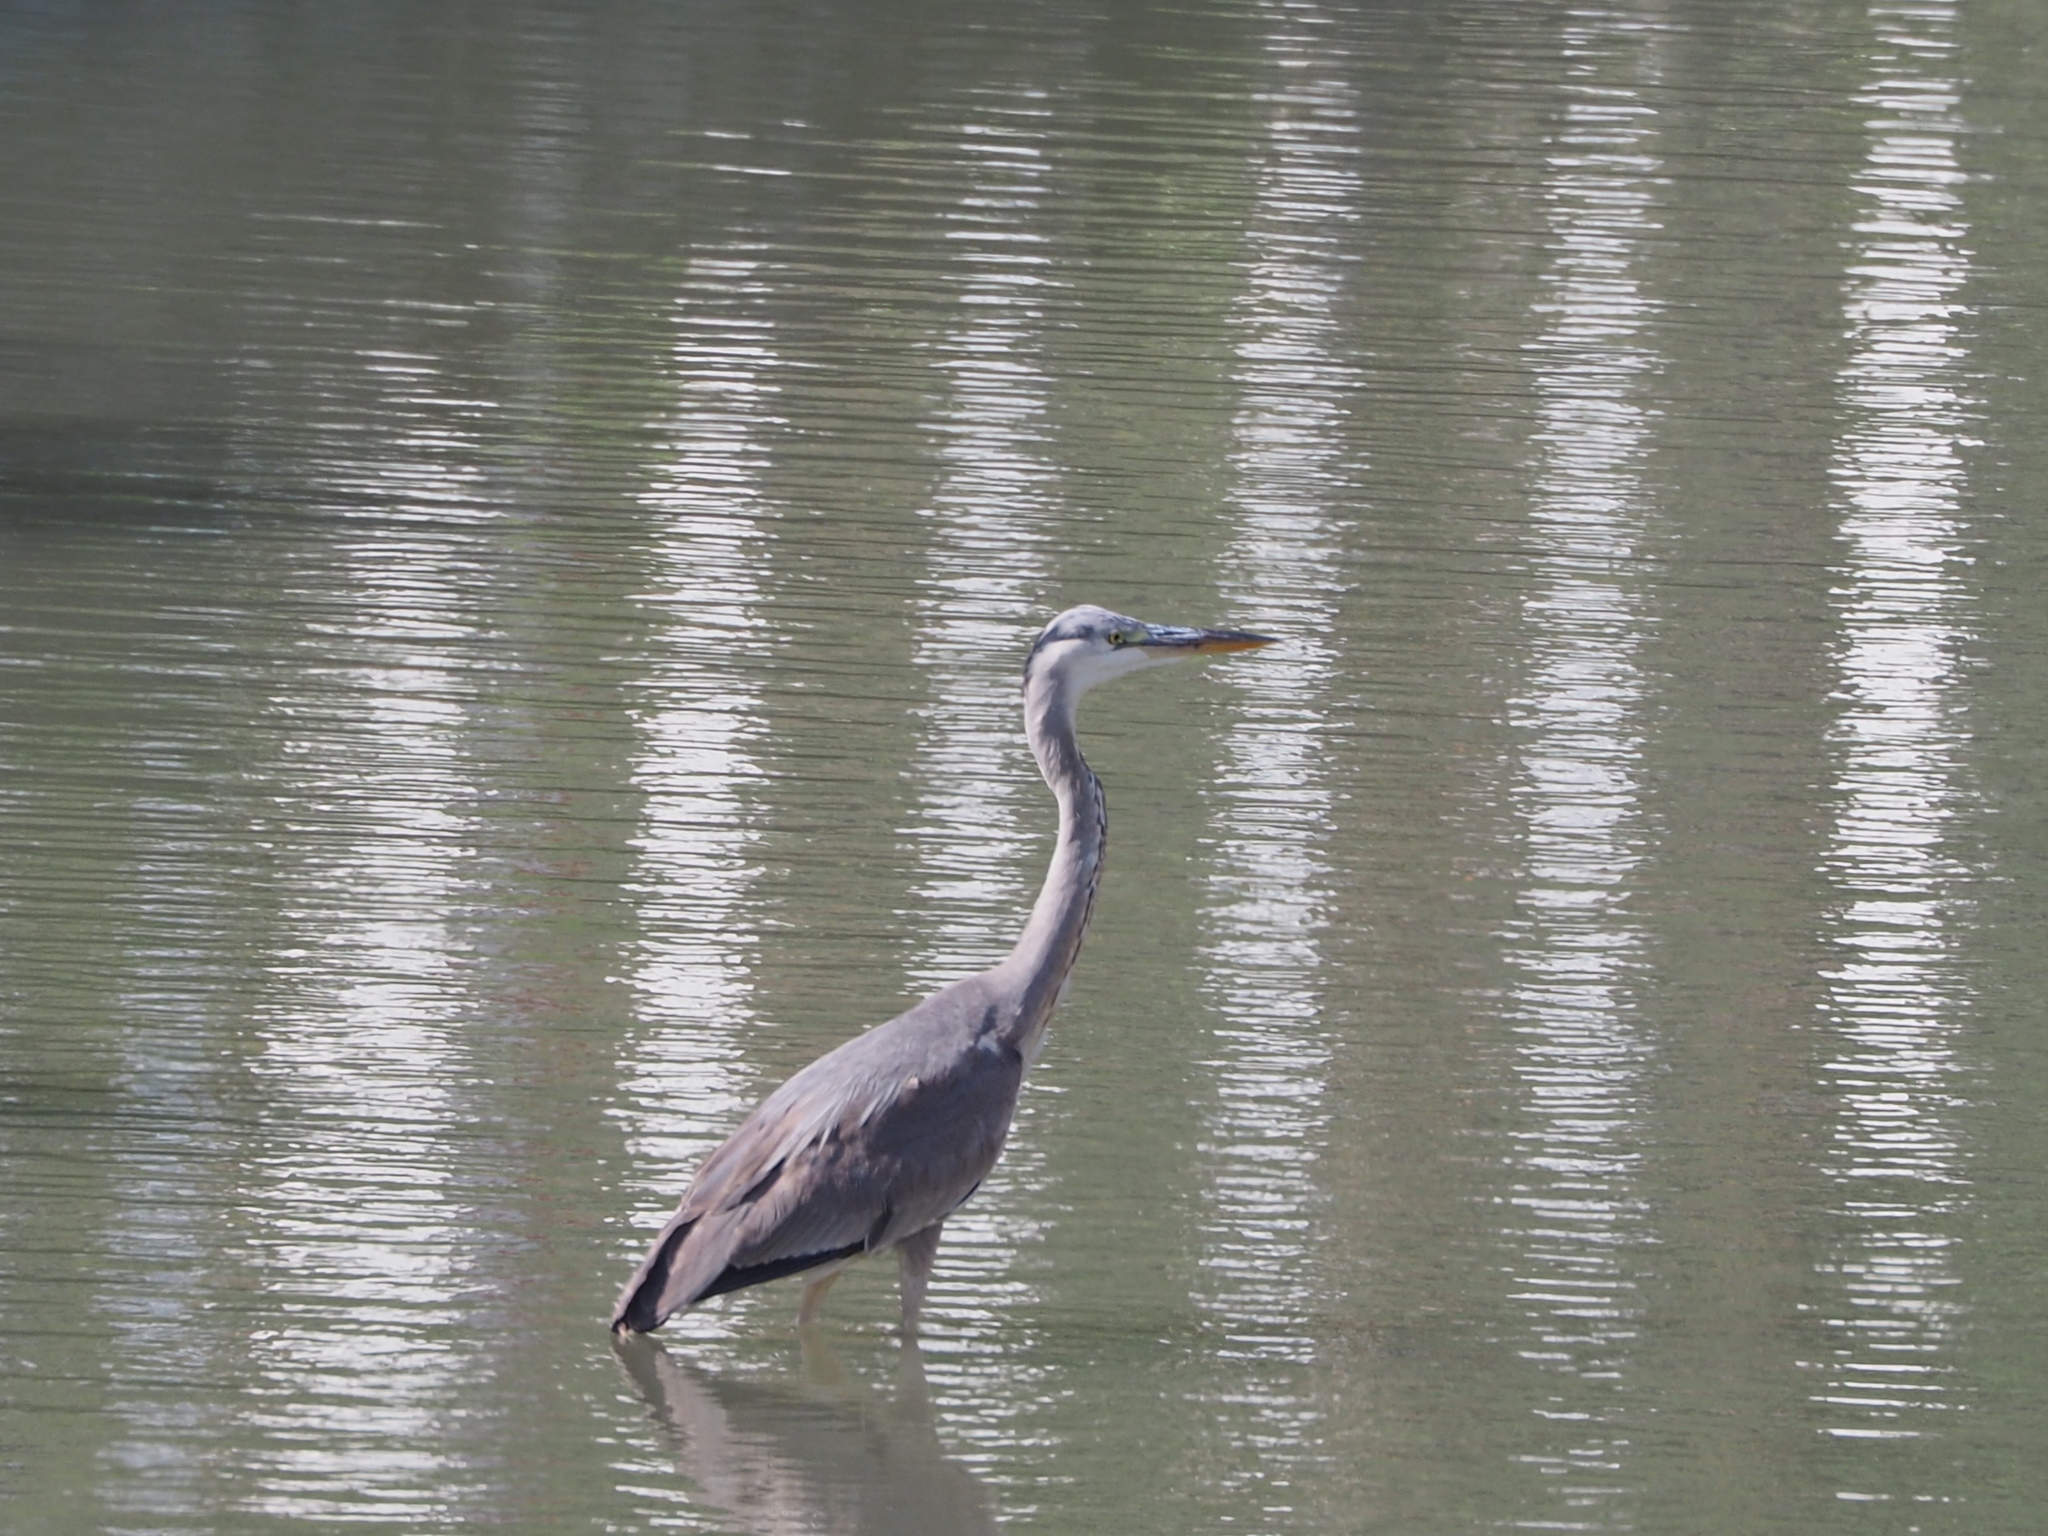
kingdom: Animalia
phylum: Chordata
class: Aves
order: Pelecaniformes
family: Ardeidae
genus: Ardea
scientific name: Ardea cinerea
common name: Grey heron
